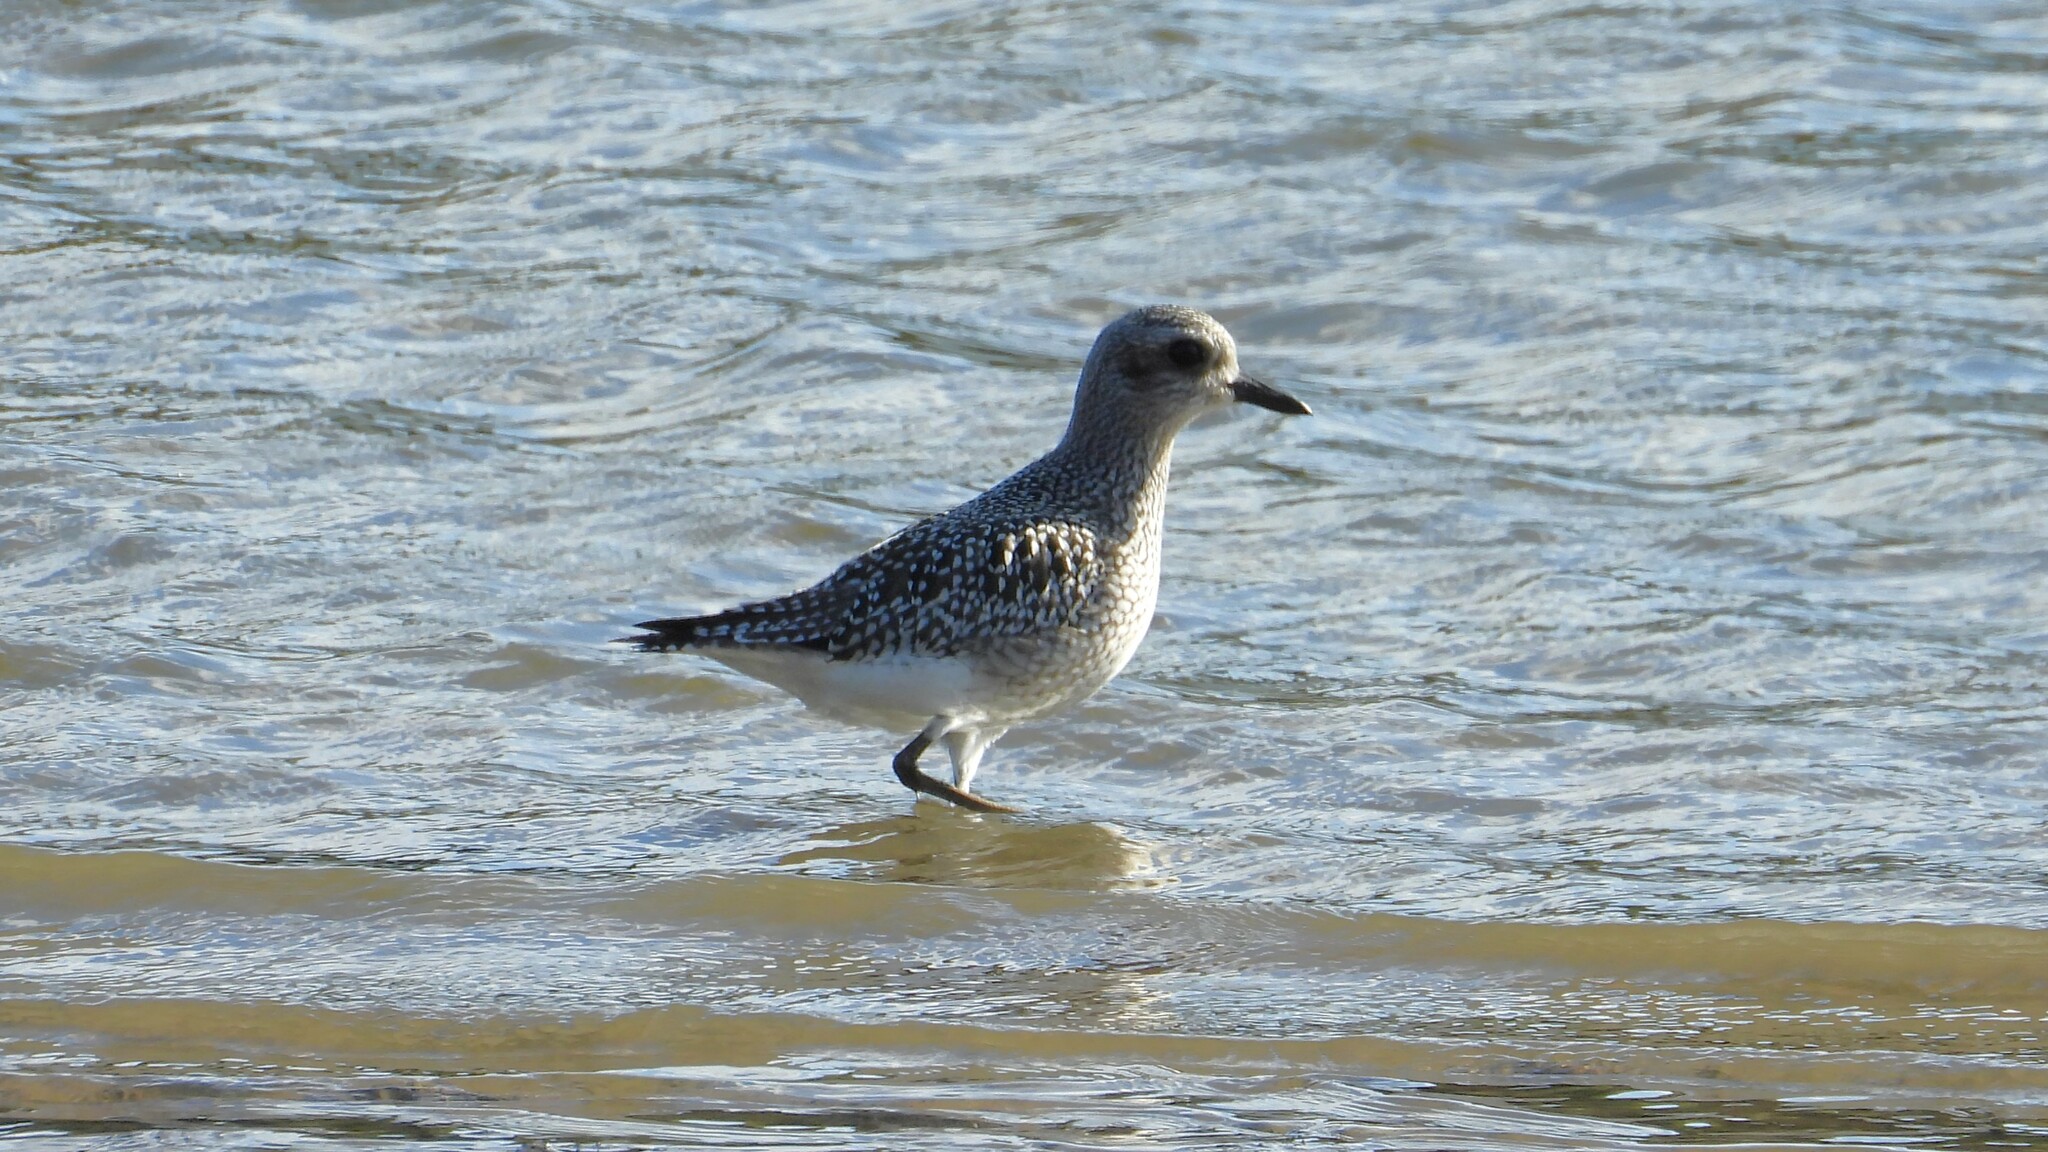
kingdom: Animalia
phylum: Chordata
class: Aves
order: Charadriiformes
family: Charadriidae
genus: Pluvialis
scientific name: Pluvialis squatarola
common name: Grey plover
